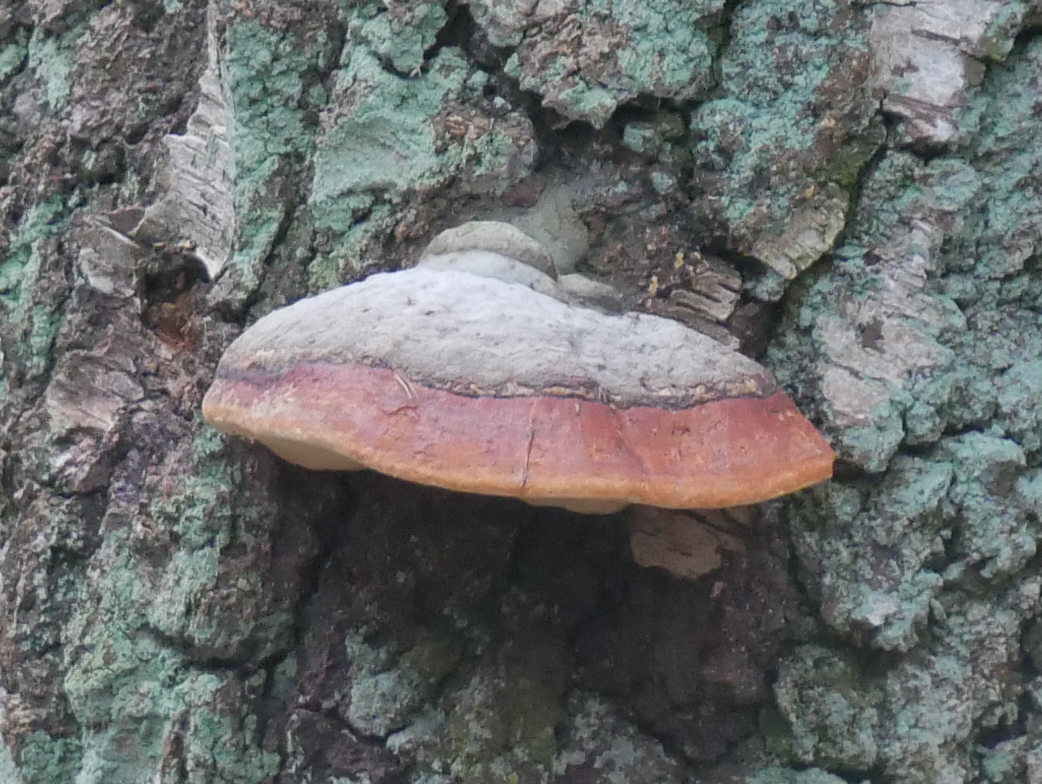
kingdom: Fungi
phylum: Basidiomycota
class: Agaricomycetes
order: Polyporales
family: Fomitopsidaceae
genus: Fomitopsis
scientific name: Fomitopsis pinicola
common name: Red-belted bracket
